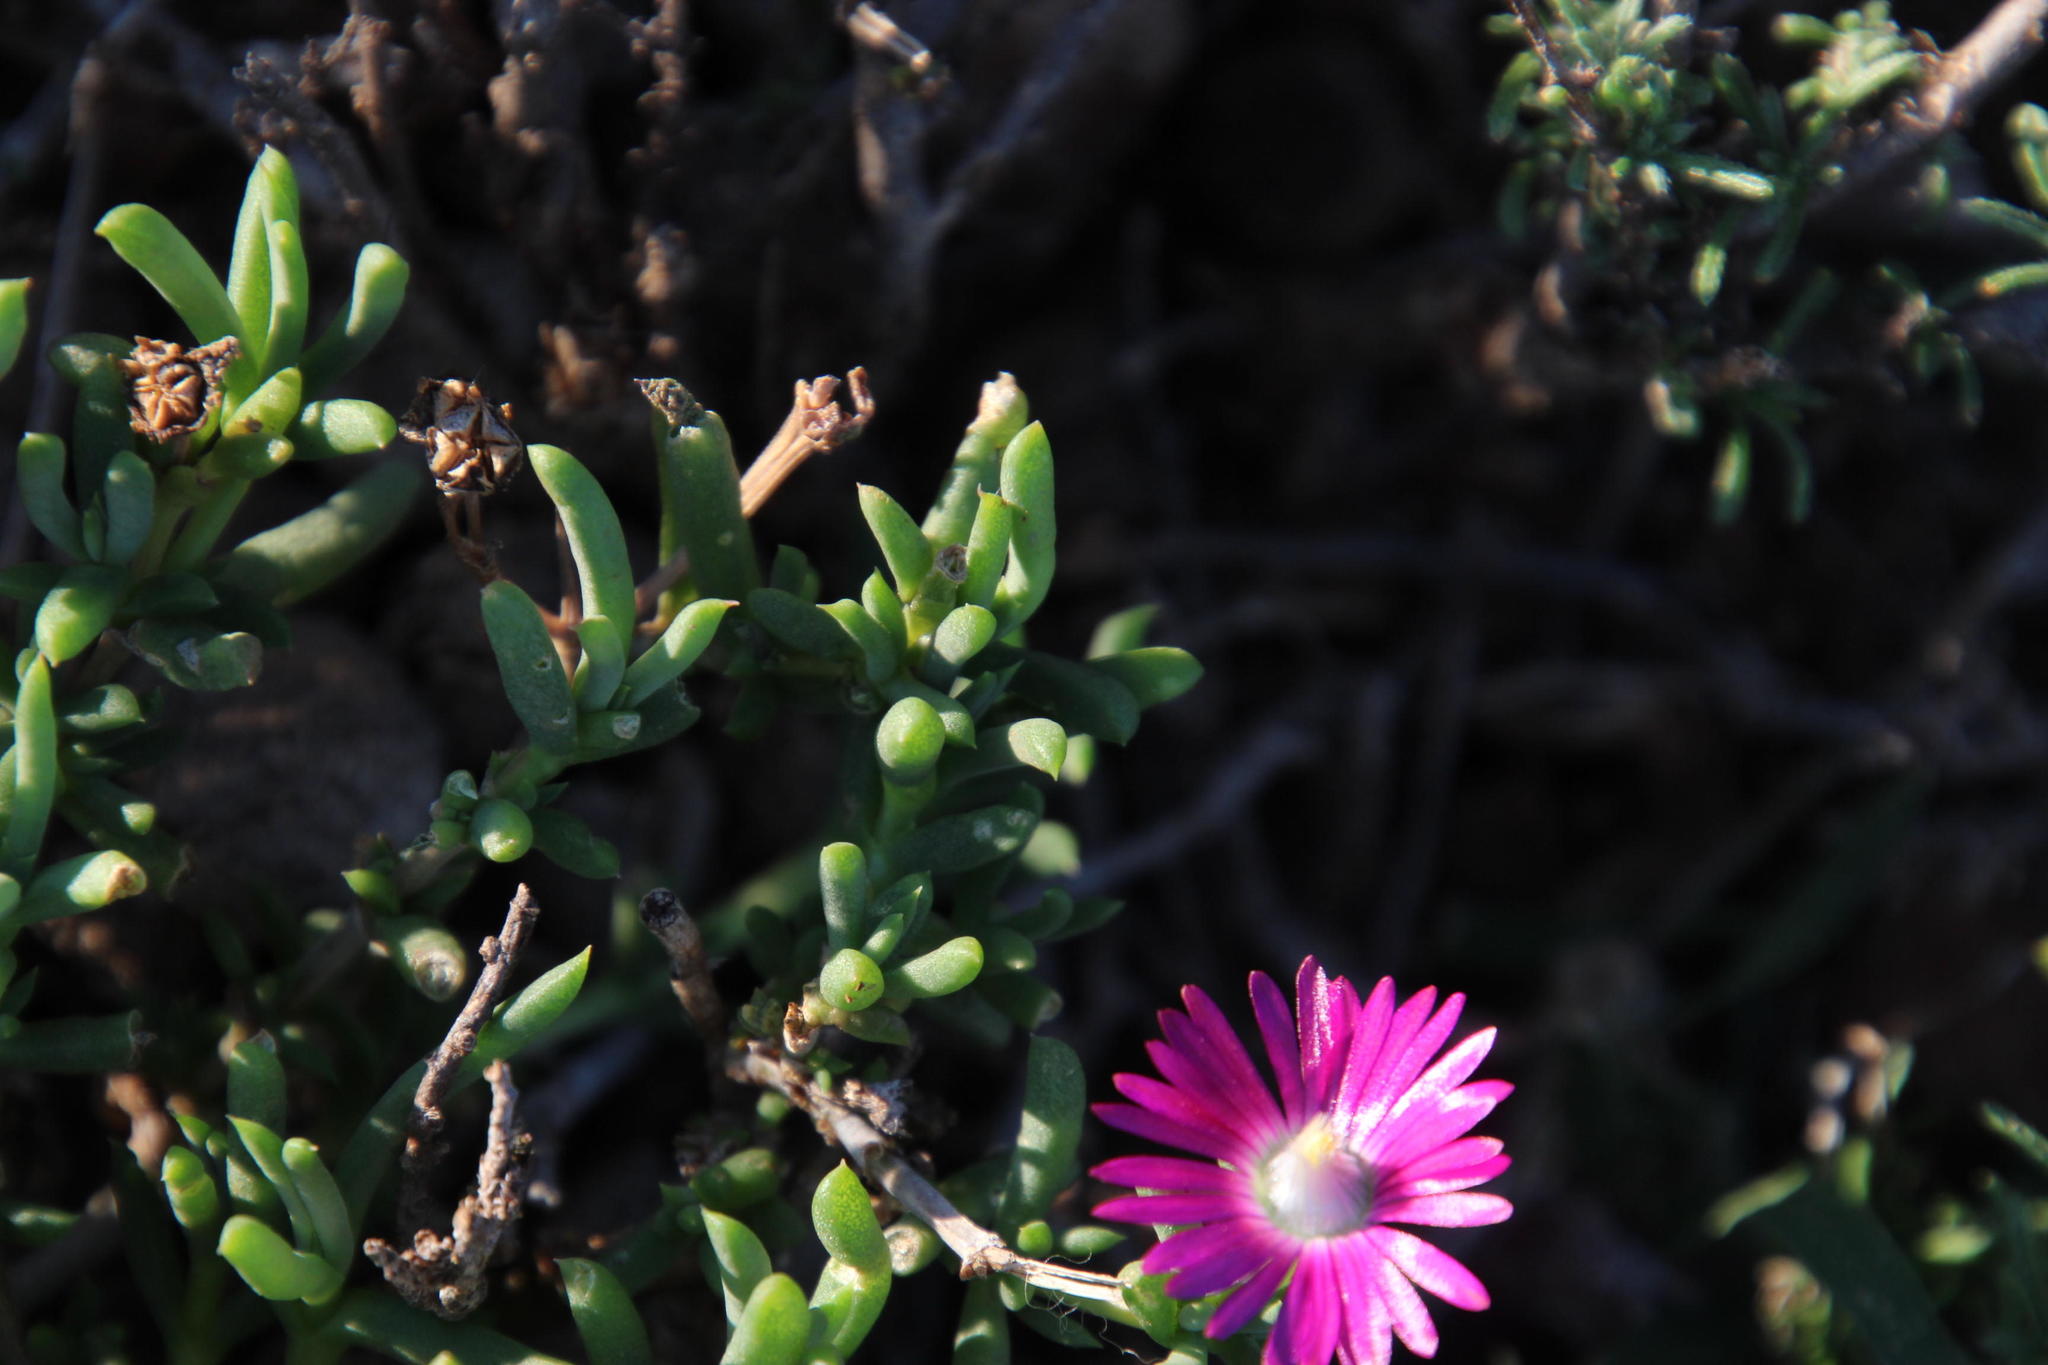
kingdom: Plantae
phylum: Tracheophyta
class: Magnoliopsida
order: Caryophyllales
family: Aizoaceae
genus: Delosperma
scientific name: Delosperma peersii
